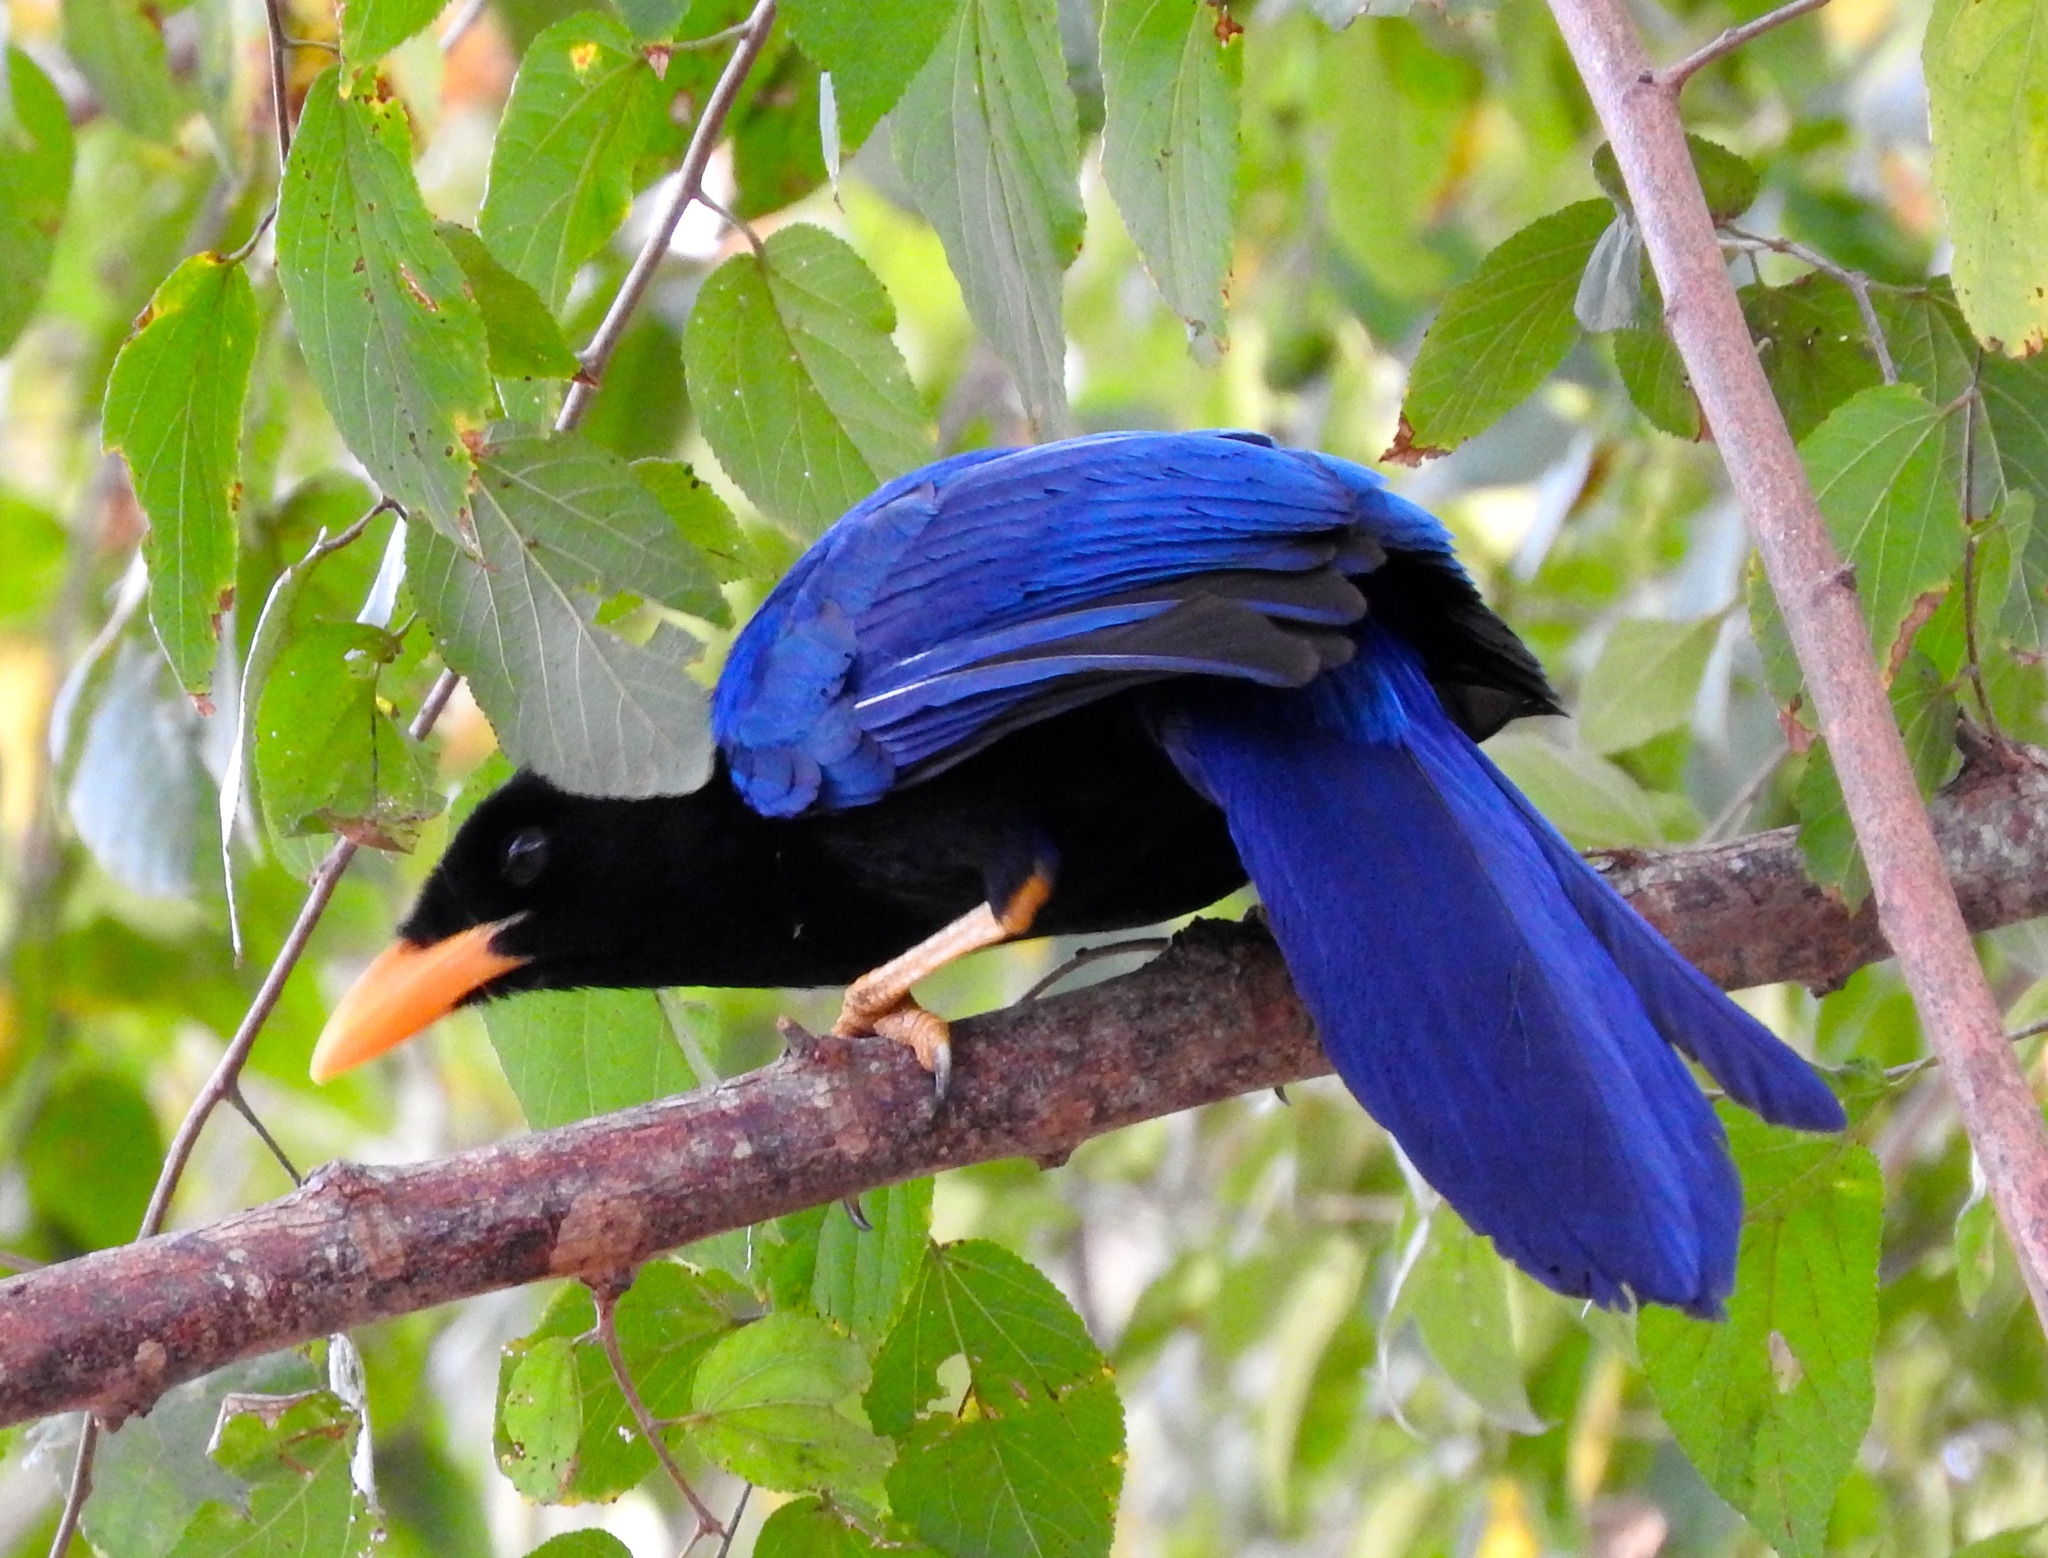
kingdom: Animalia
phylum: Chordata
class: Aves
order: Passeriformes
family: Corvidae
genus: Cyanocorax
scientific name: Cyanocorax beecheii
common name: Purplish-backed jay
